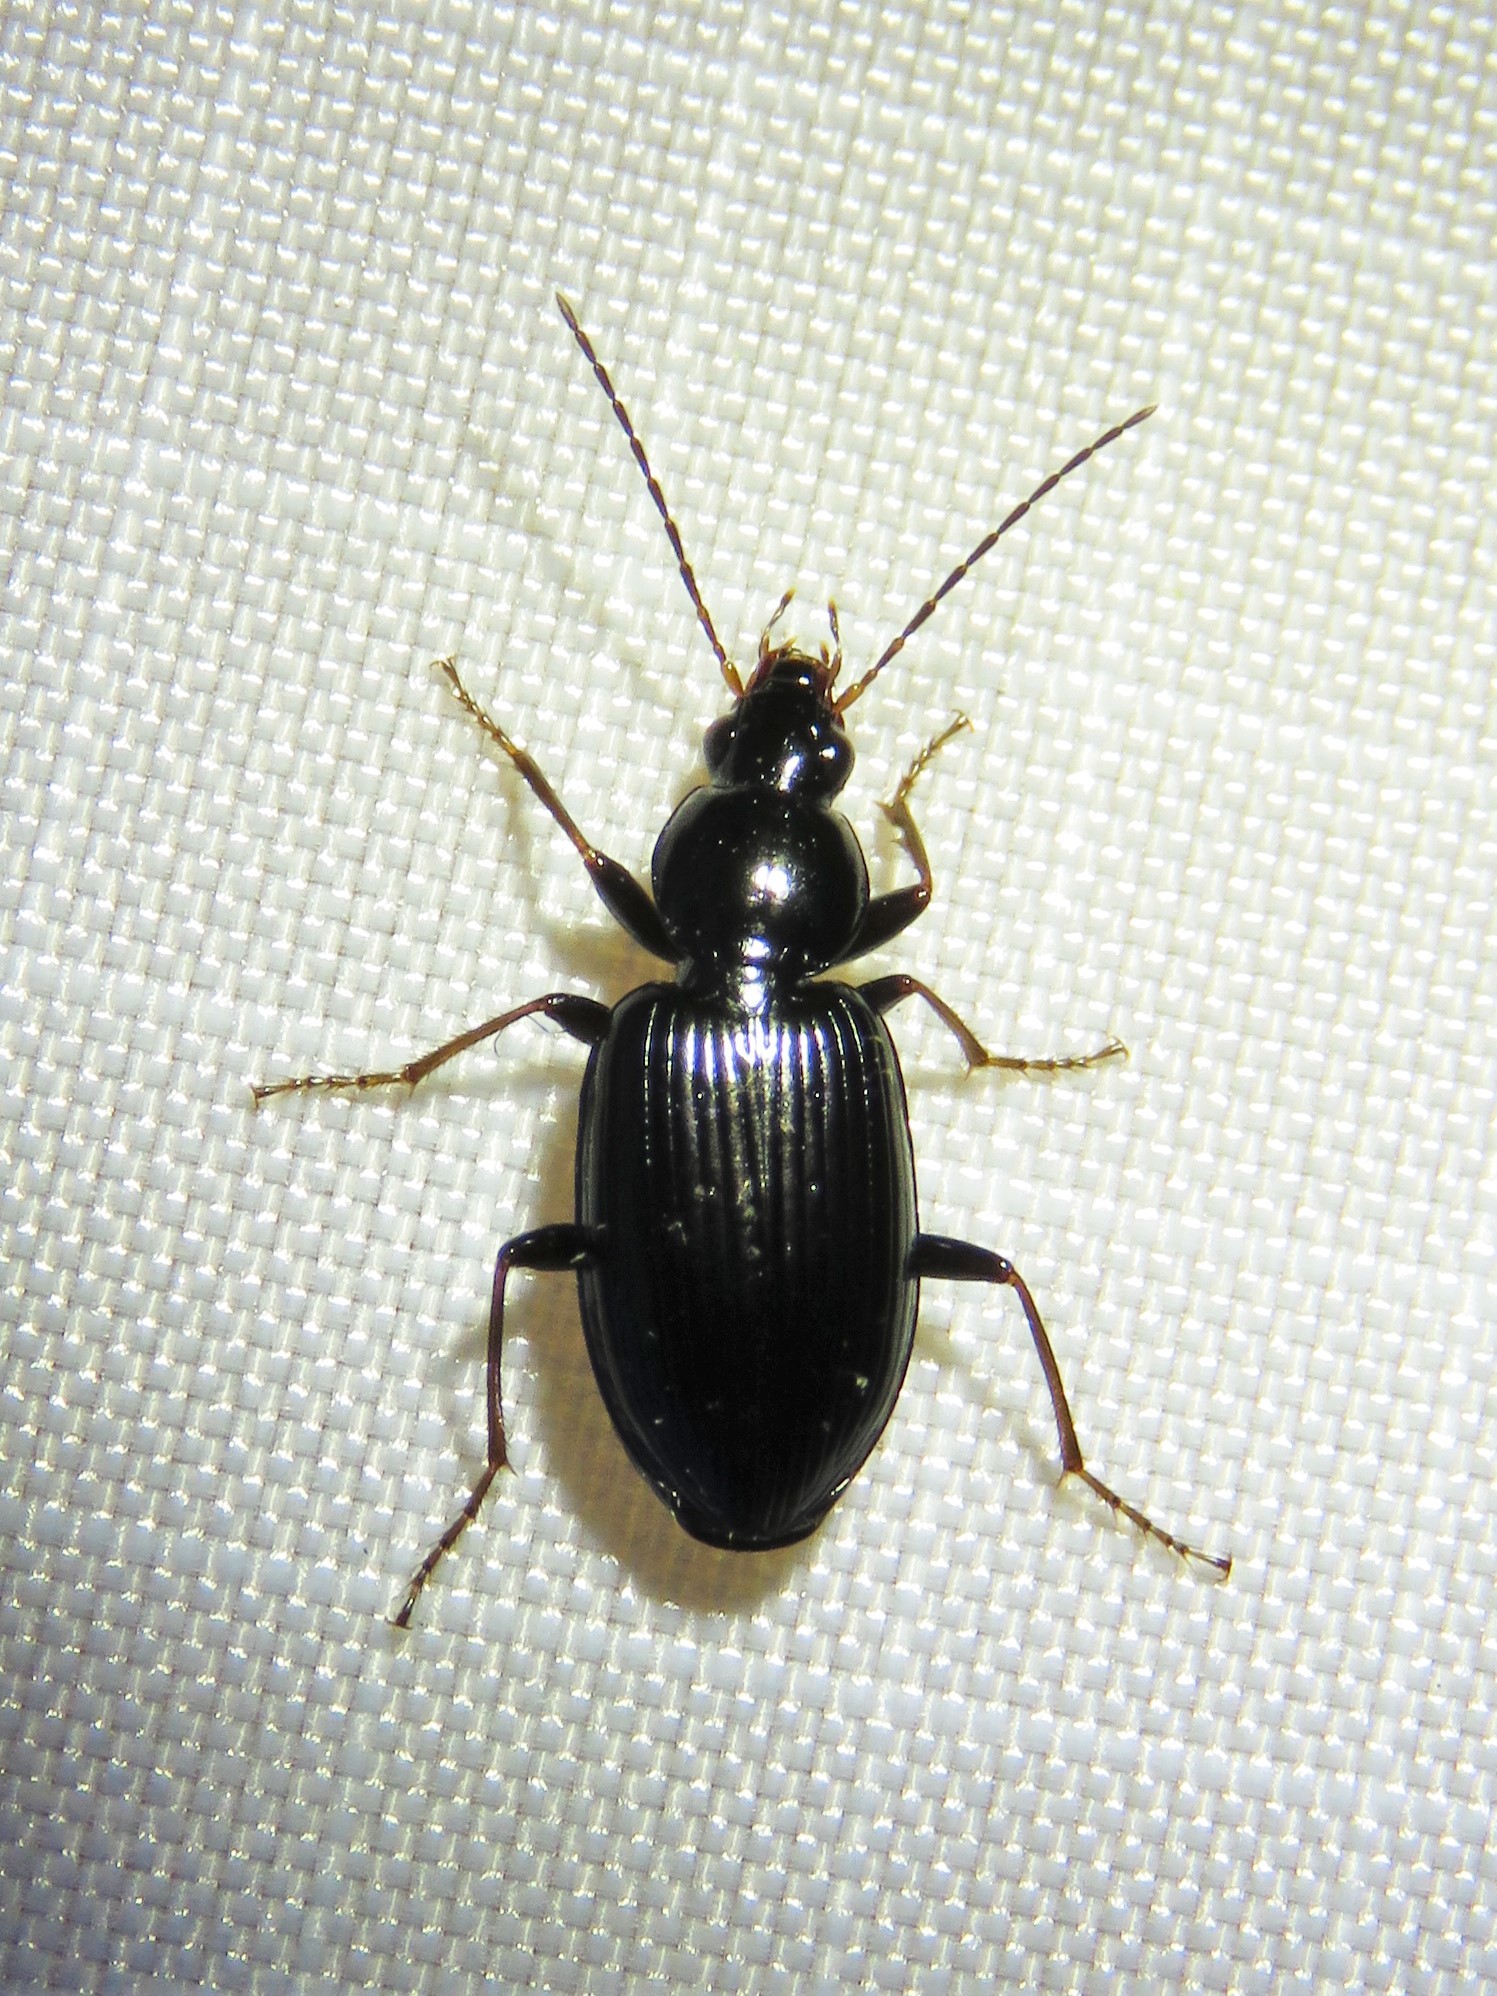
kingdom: Animalia
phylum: Arthropoda
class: Insecta
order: Coleoptera
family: Carabidae
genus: Agonum
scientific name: Agonum punctiforme
